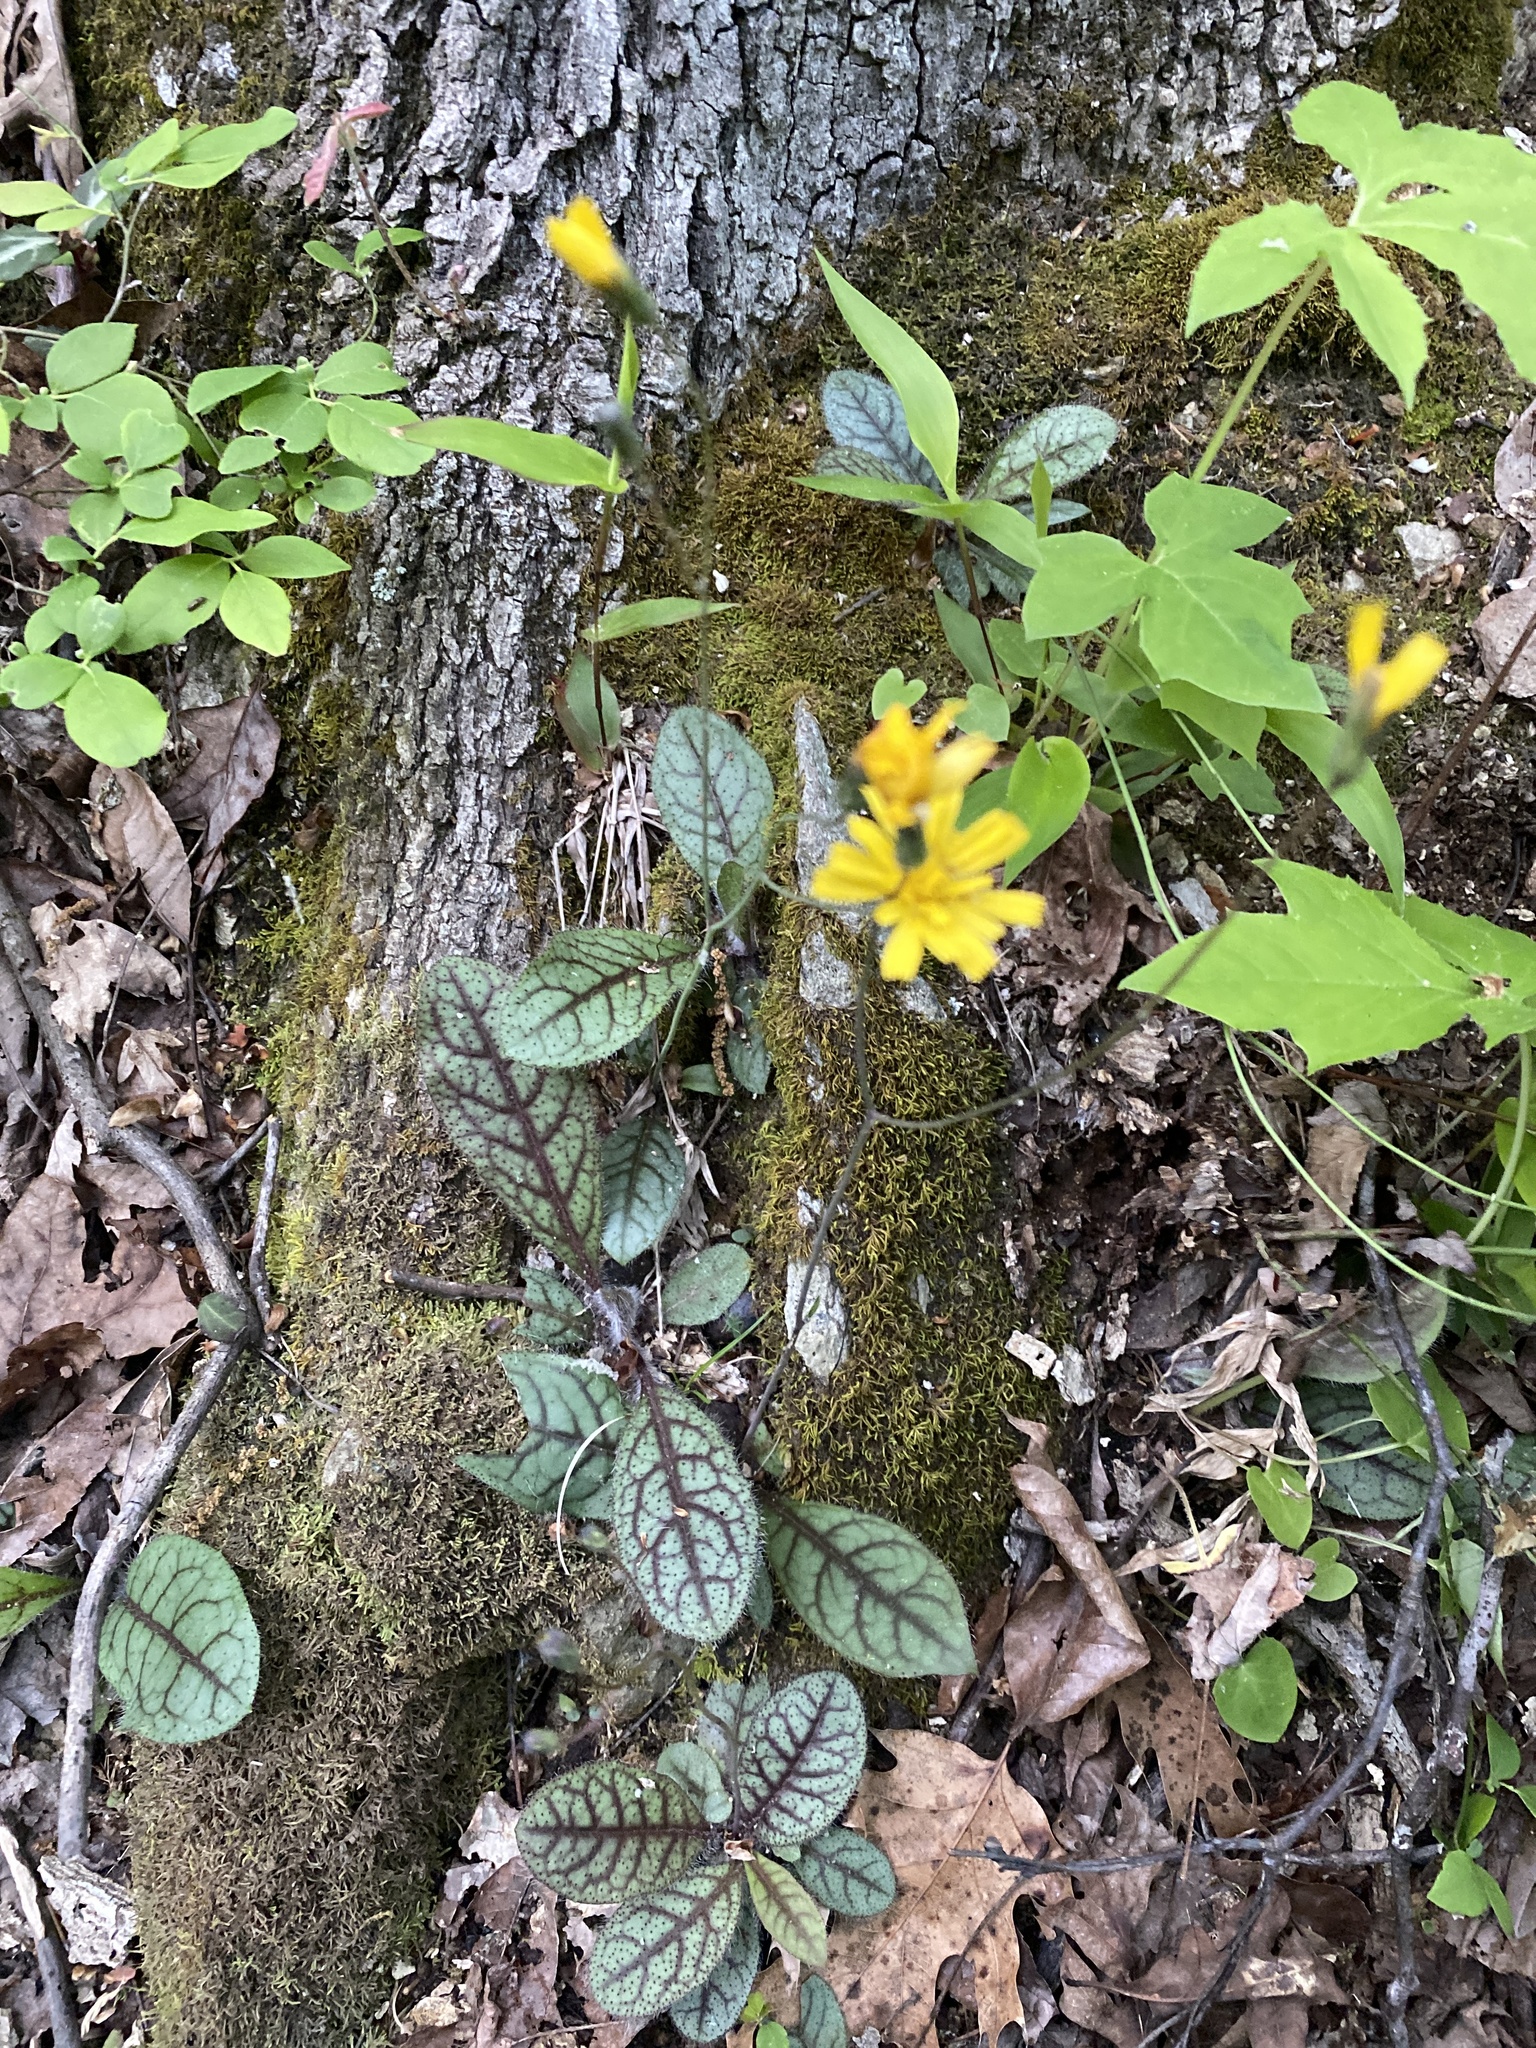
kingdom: Plantae
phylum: Tracheophyta
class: Magnoliopsida
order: Asterales
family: Asteraceae
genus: Hieracium
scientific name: Hieracium venosum
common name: Rattlesnake hawkweed
